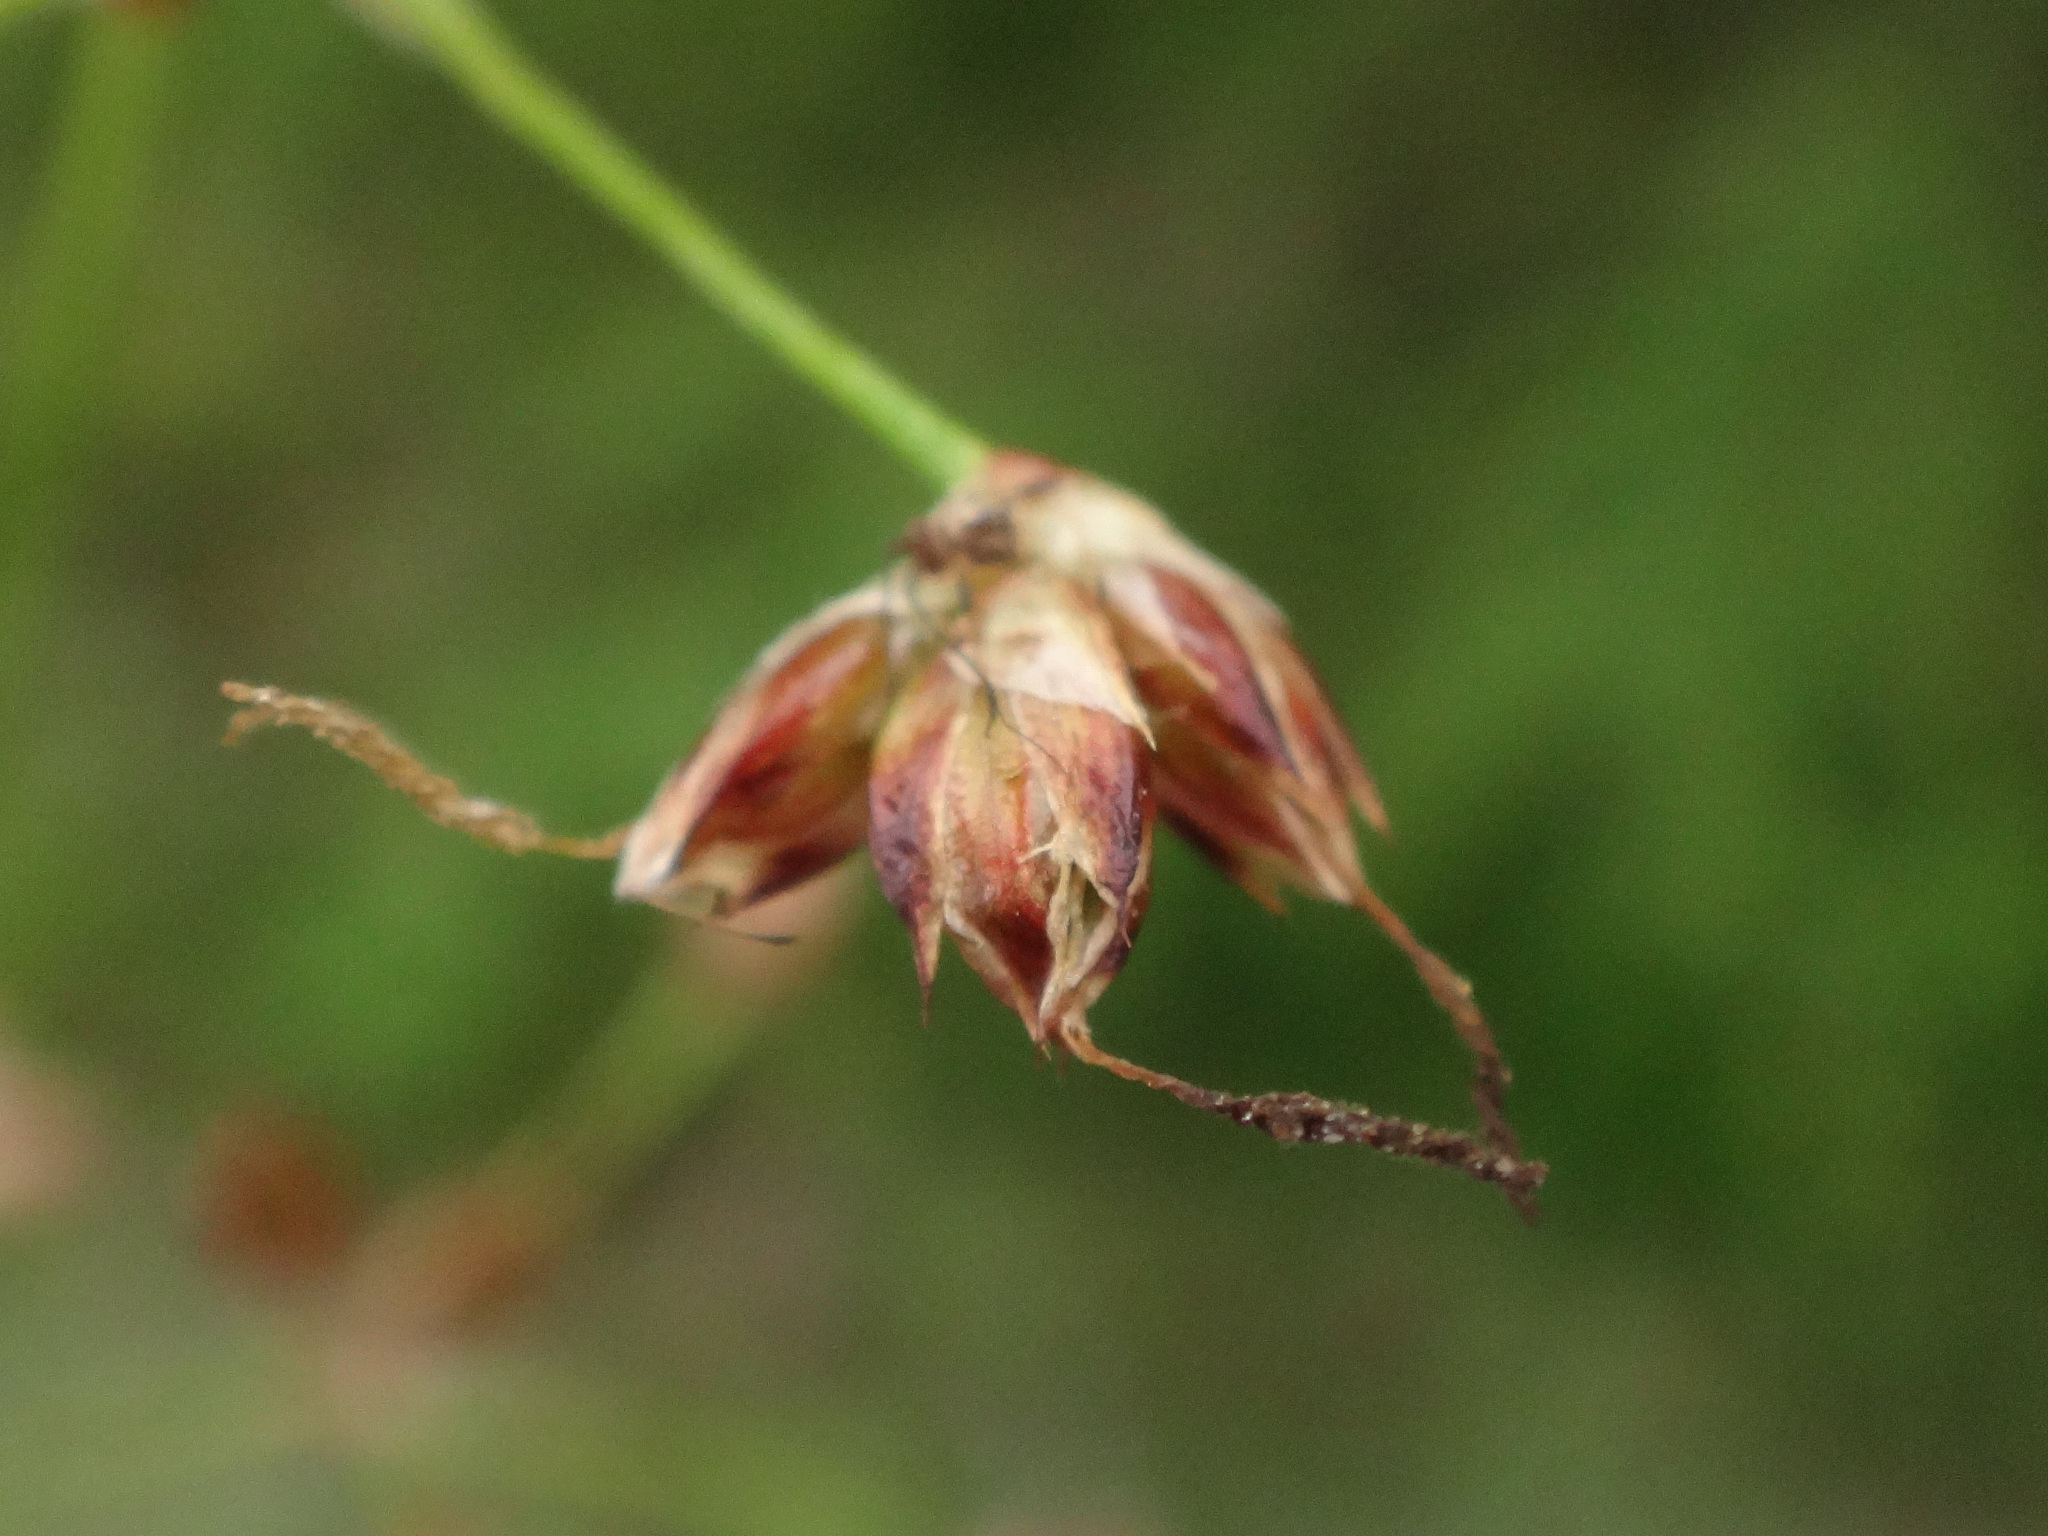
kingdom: Plantae
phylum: Tracheophyta
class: Liliopsida
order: Poales
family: Juncaceae
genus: Luzula
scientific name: Luzula sylvatica
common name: Great wood-rush
